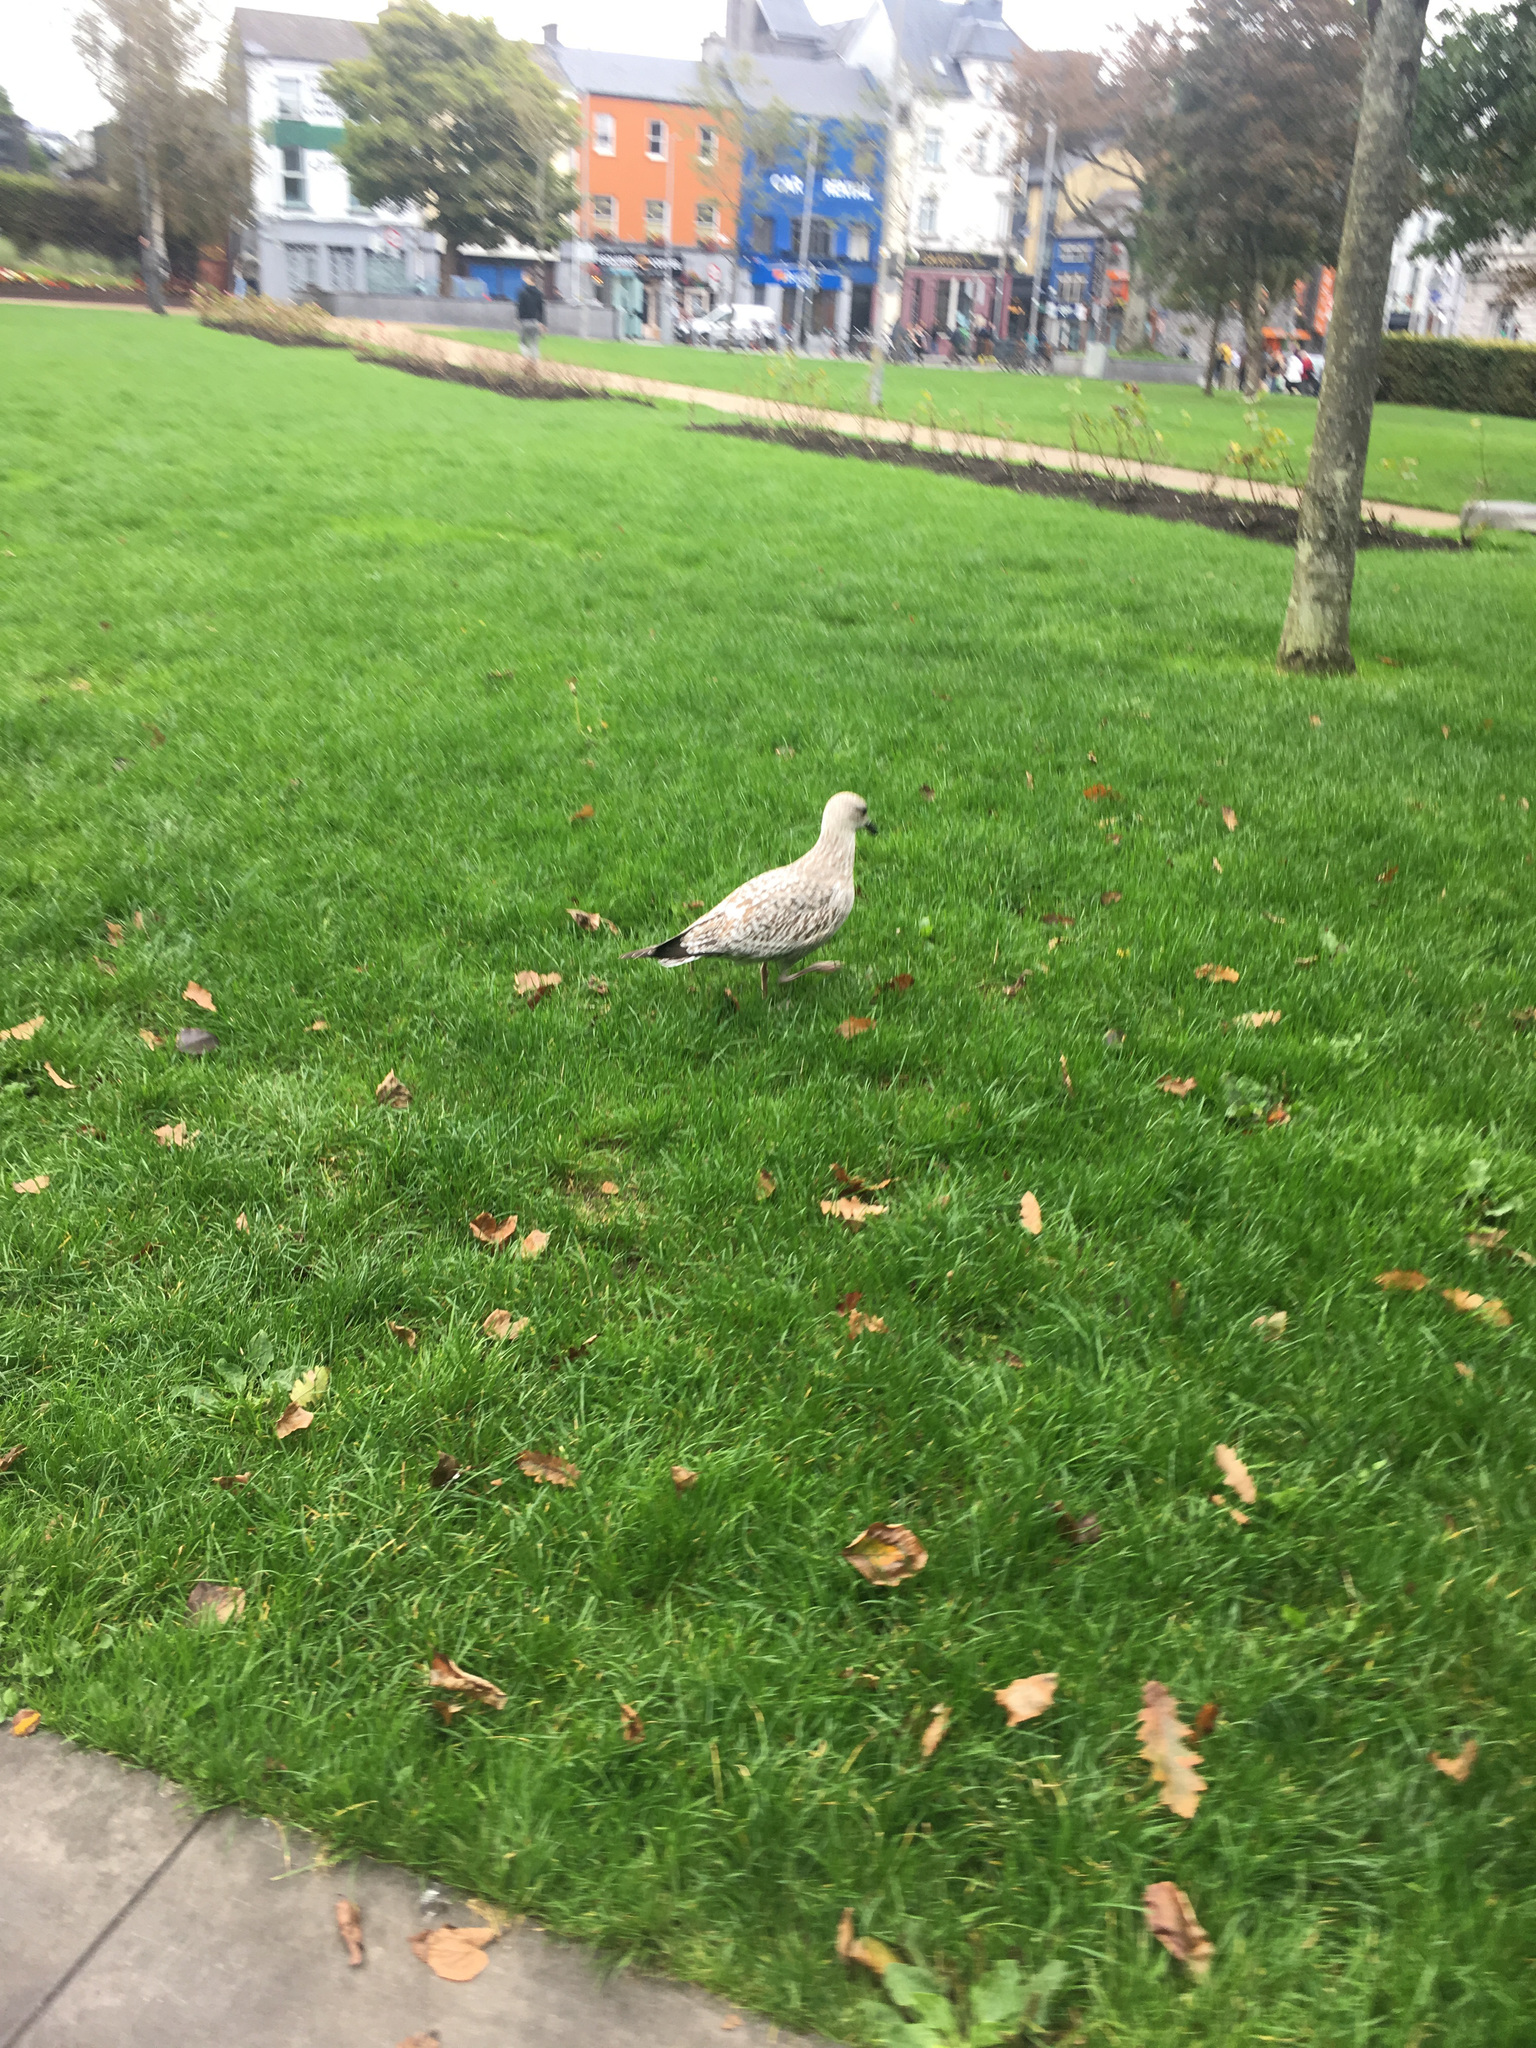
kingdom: Animalia
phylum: Chordata
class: Aves
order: Charadriiformes
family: Laridae
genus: Larus
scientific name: Larus argentatus
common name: Herring gull
